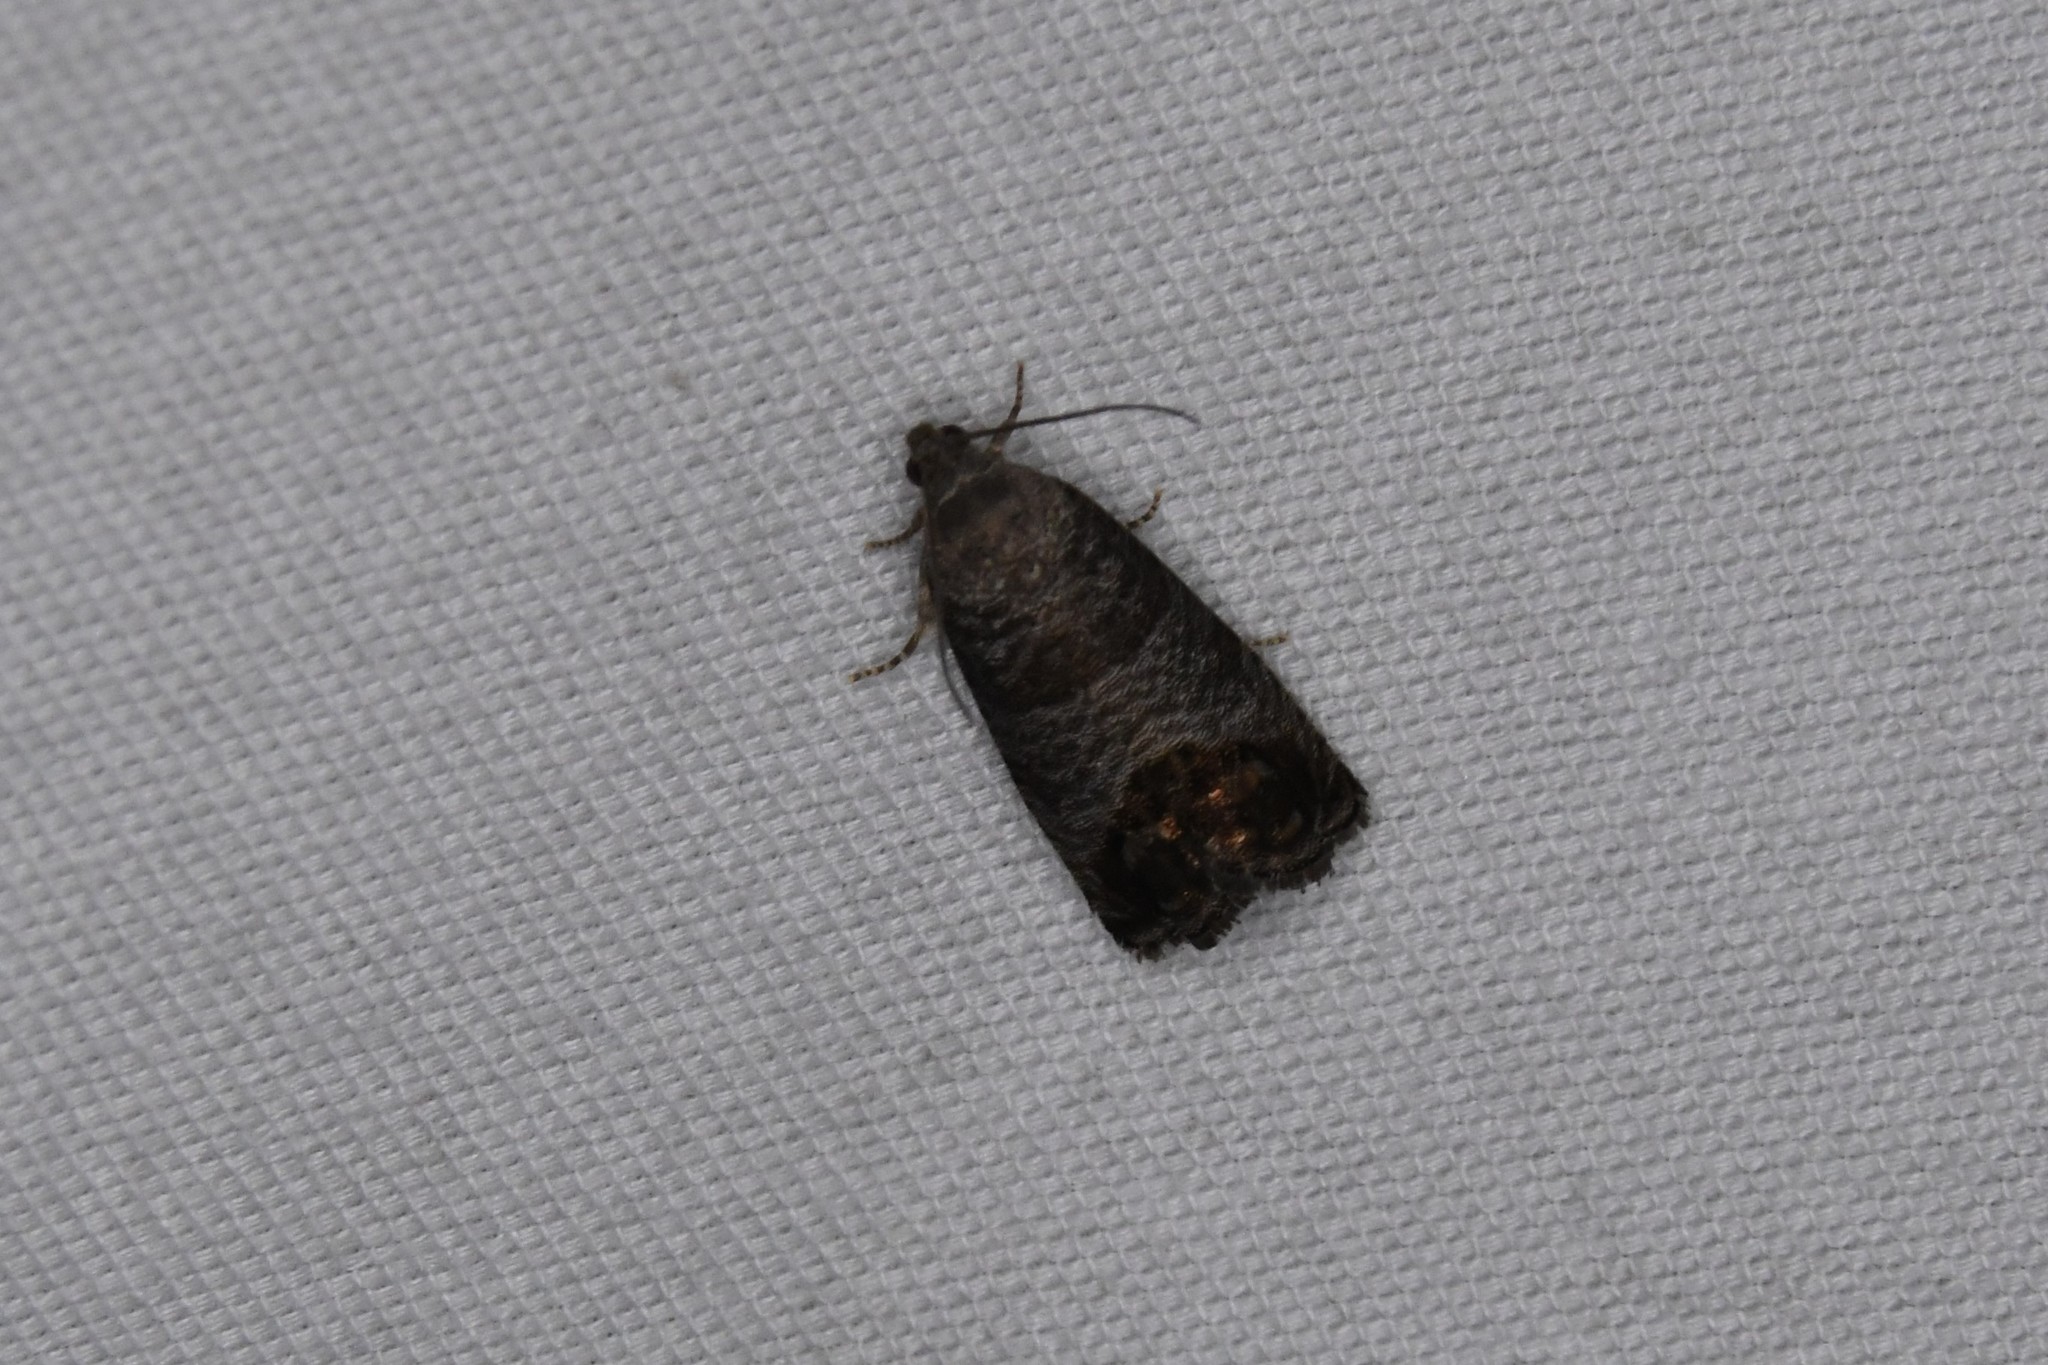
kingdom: Animalia
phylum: Arthropoda
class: Insecta
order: Lepidoptera
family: Tortricidae
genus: Cydia
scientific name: Cydia pomonella
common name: Codling moth
